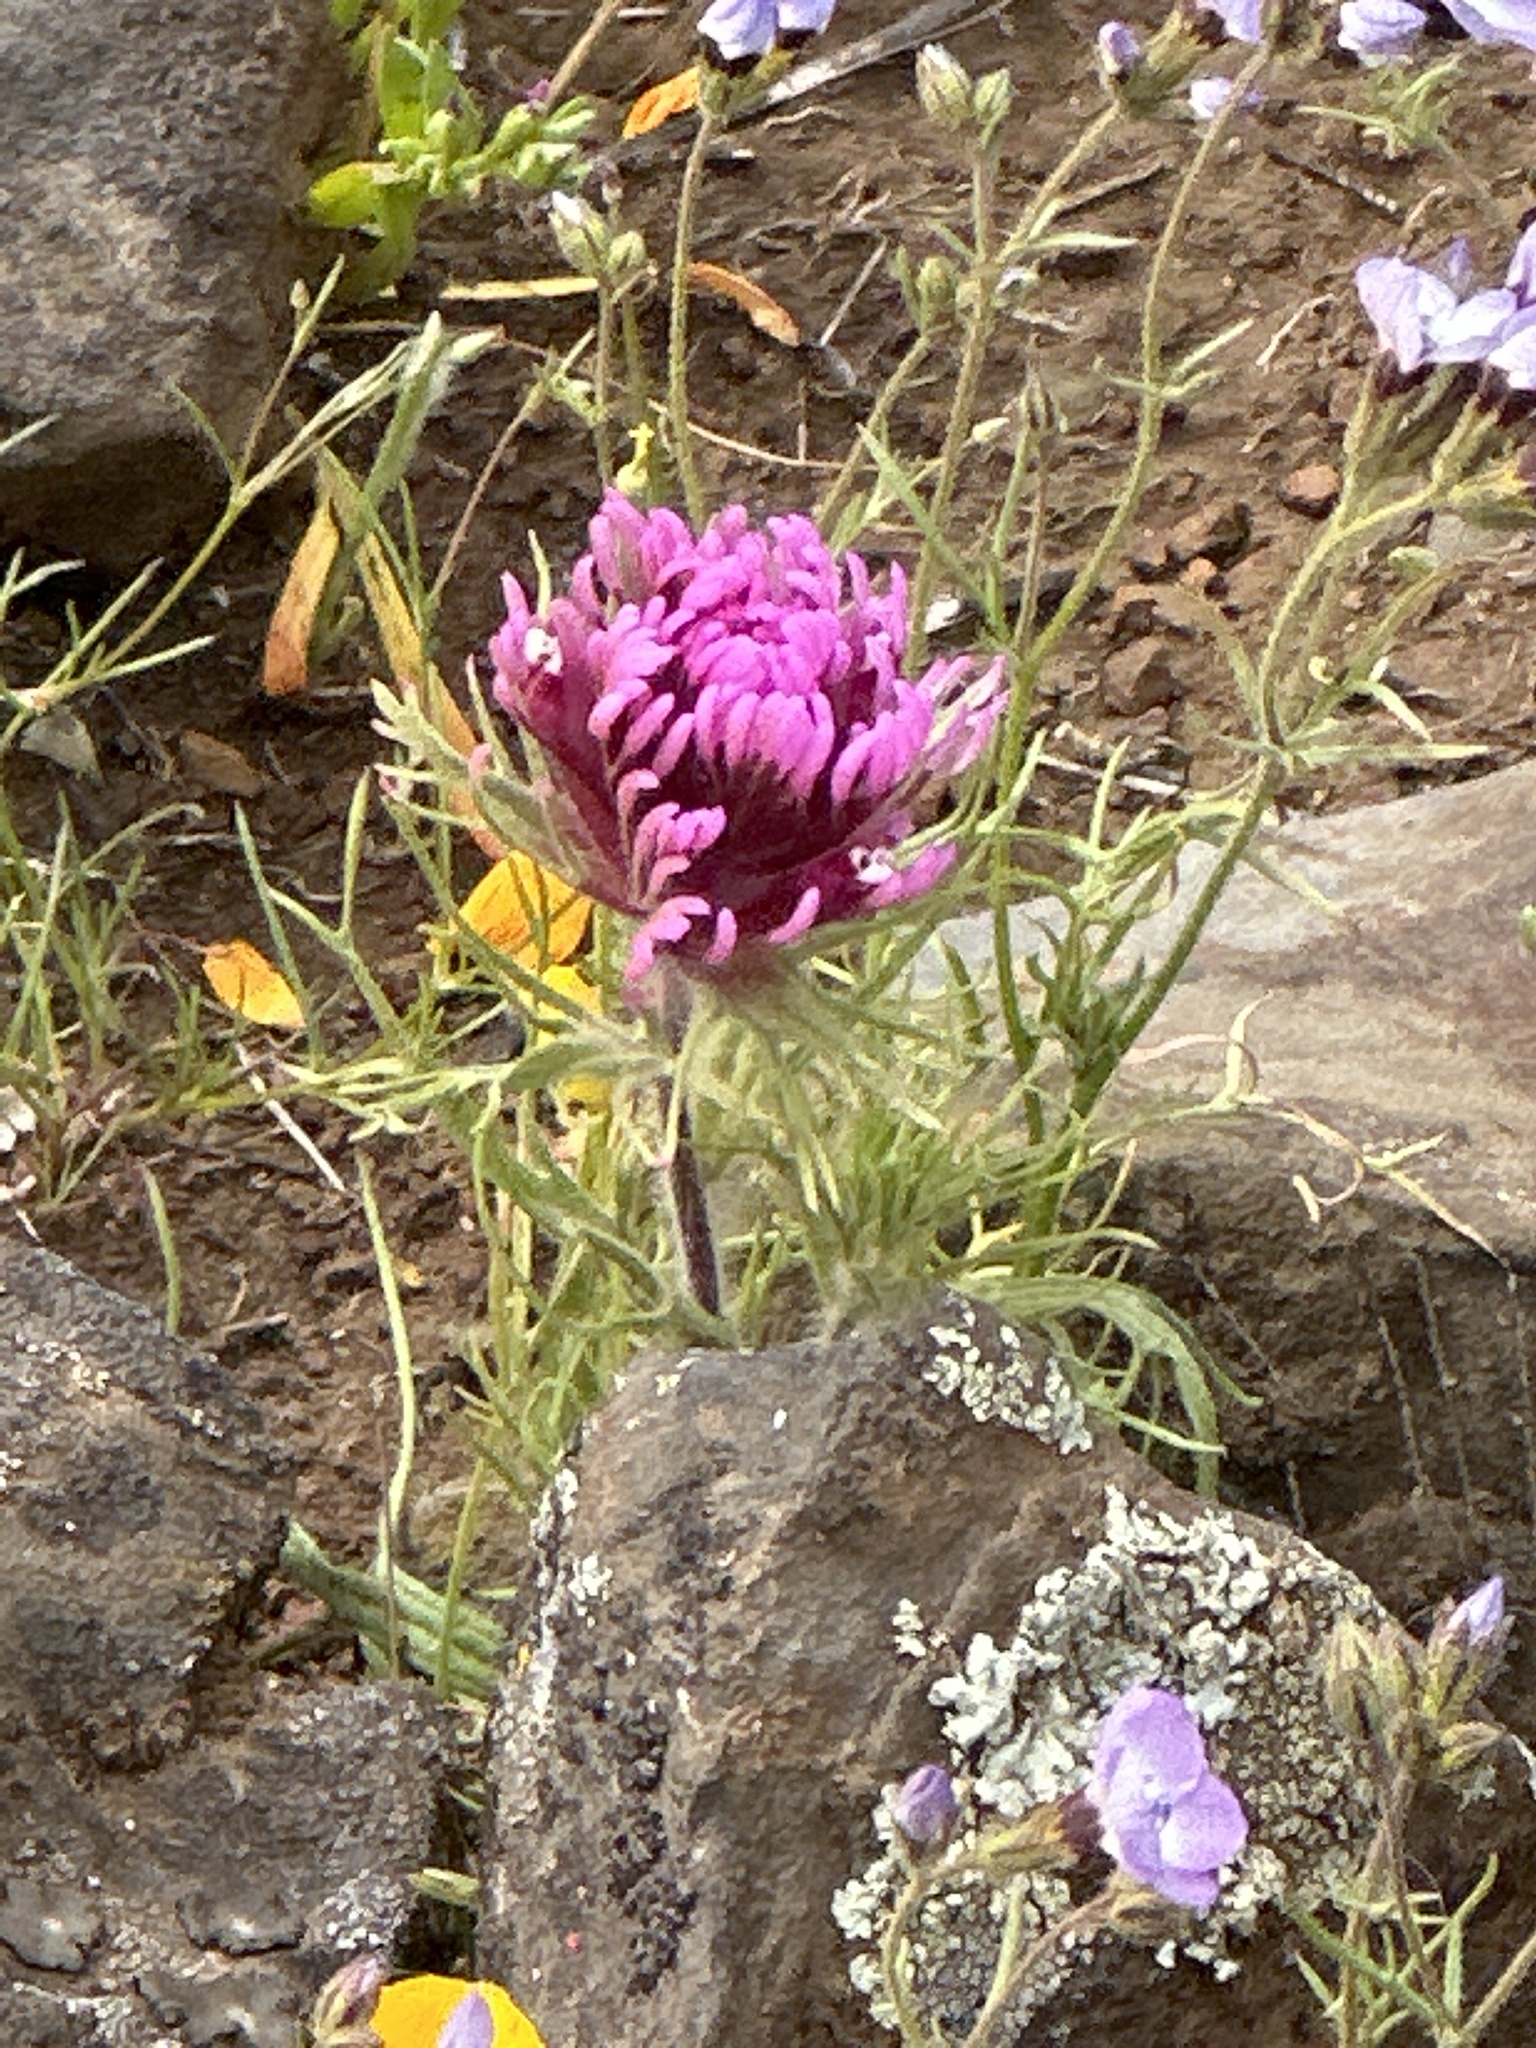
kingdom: Plantae
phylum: Tracheophyta
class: Magnoliopsida
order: Lamiales
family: Orobanchaceae
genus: Castilleja
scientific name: Castilleja exserta
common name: Purple owl-clover
